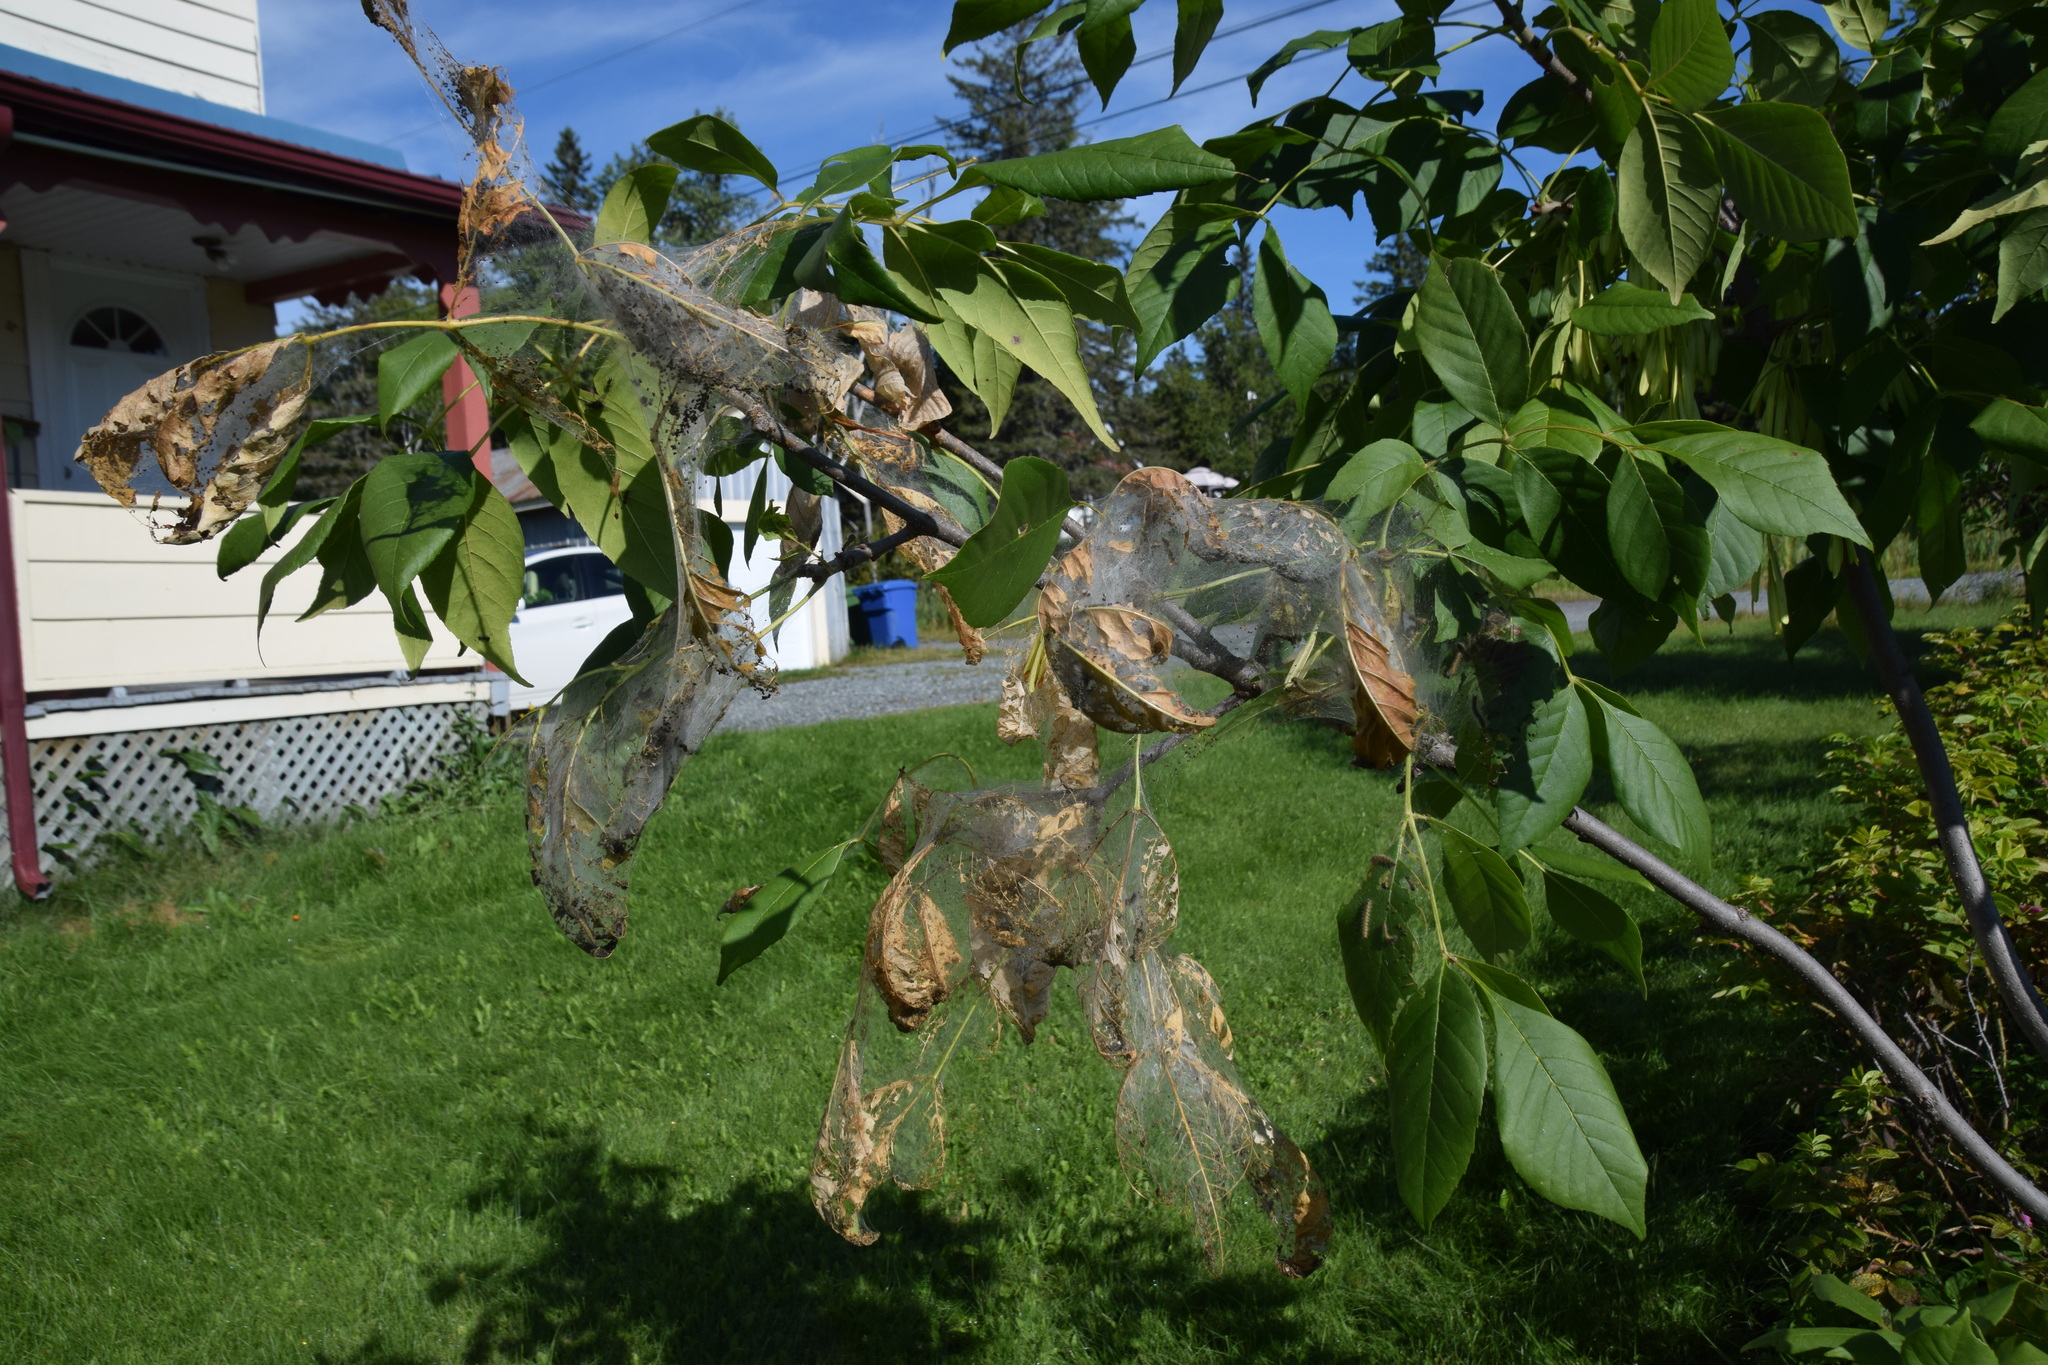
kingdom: Animalia
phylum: Arthropoda
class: Insecta
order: Lepidoptera
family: Erebidae
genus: Hyphantria
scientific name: Hyphantria cunea
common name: American white moth
